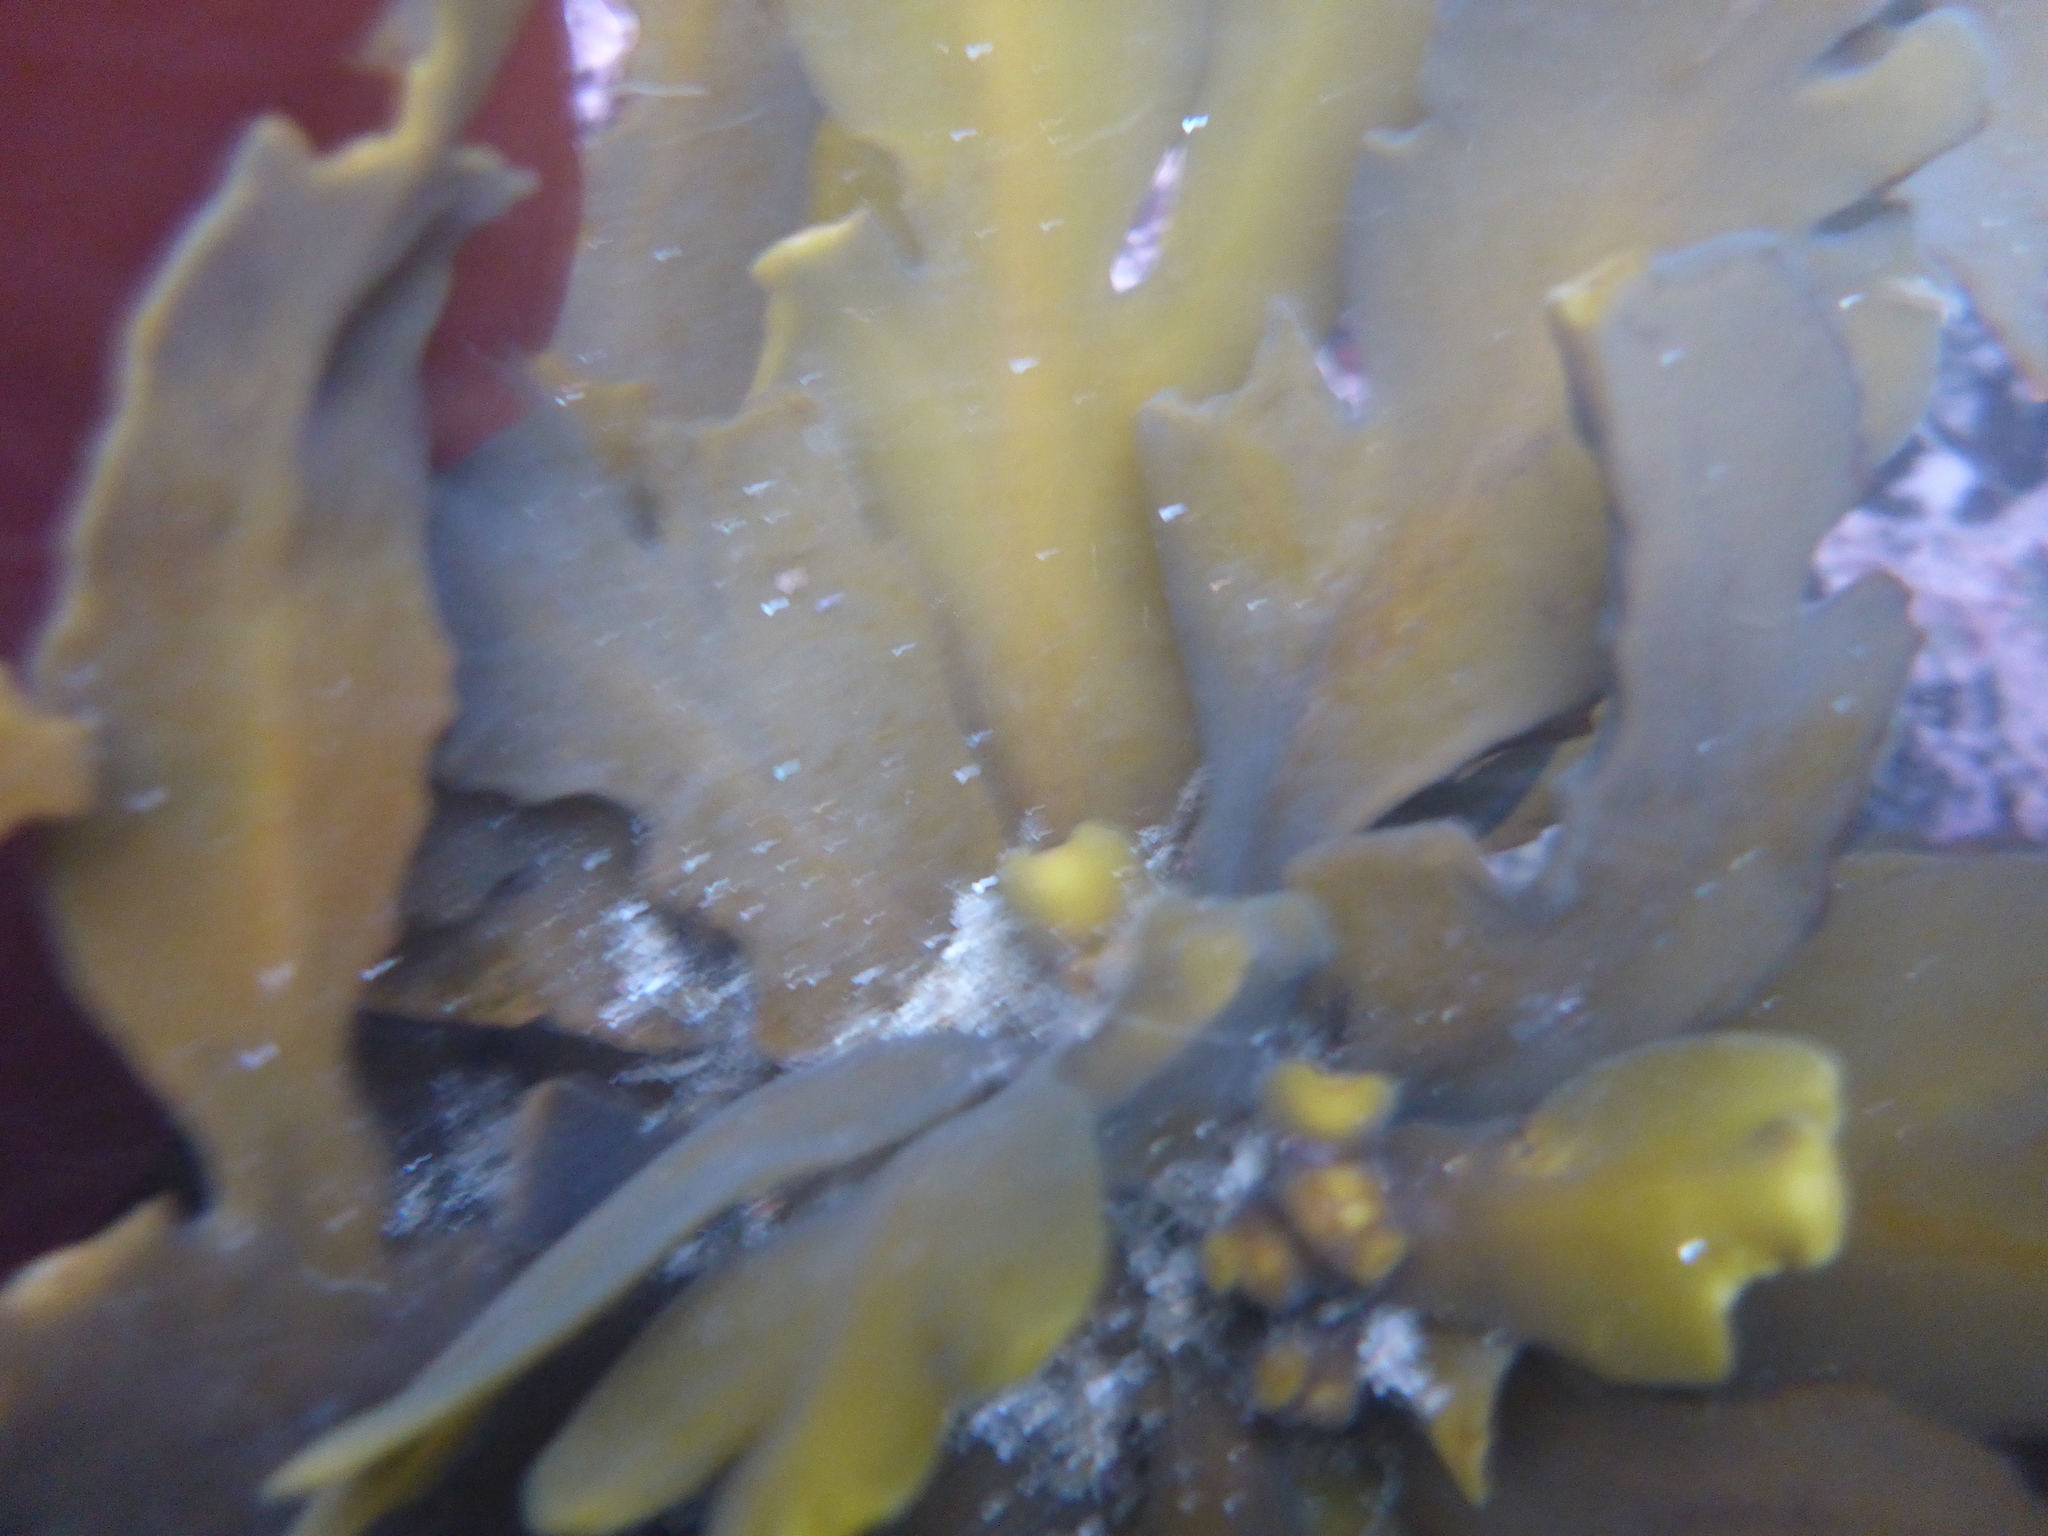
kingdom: Chromista
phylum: Ochrophyta
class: Phaeophyceae
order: Fucales
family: Sargassaceae
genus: Stephanocystis
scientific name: Stephanocystis
